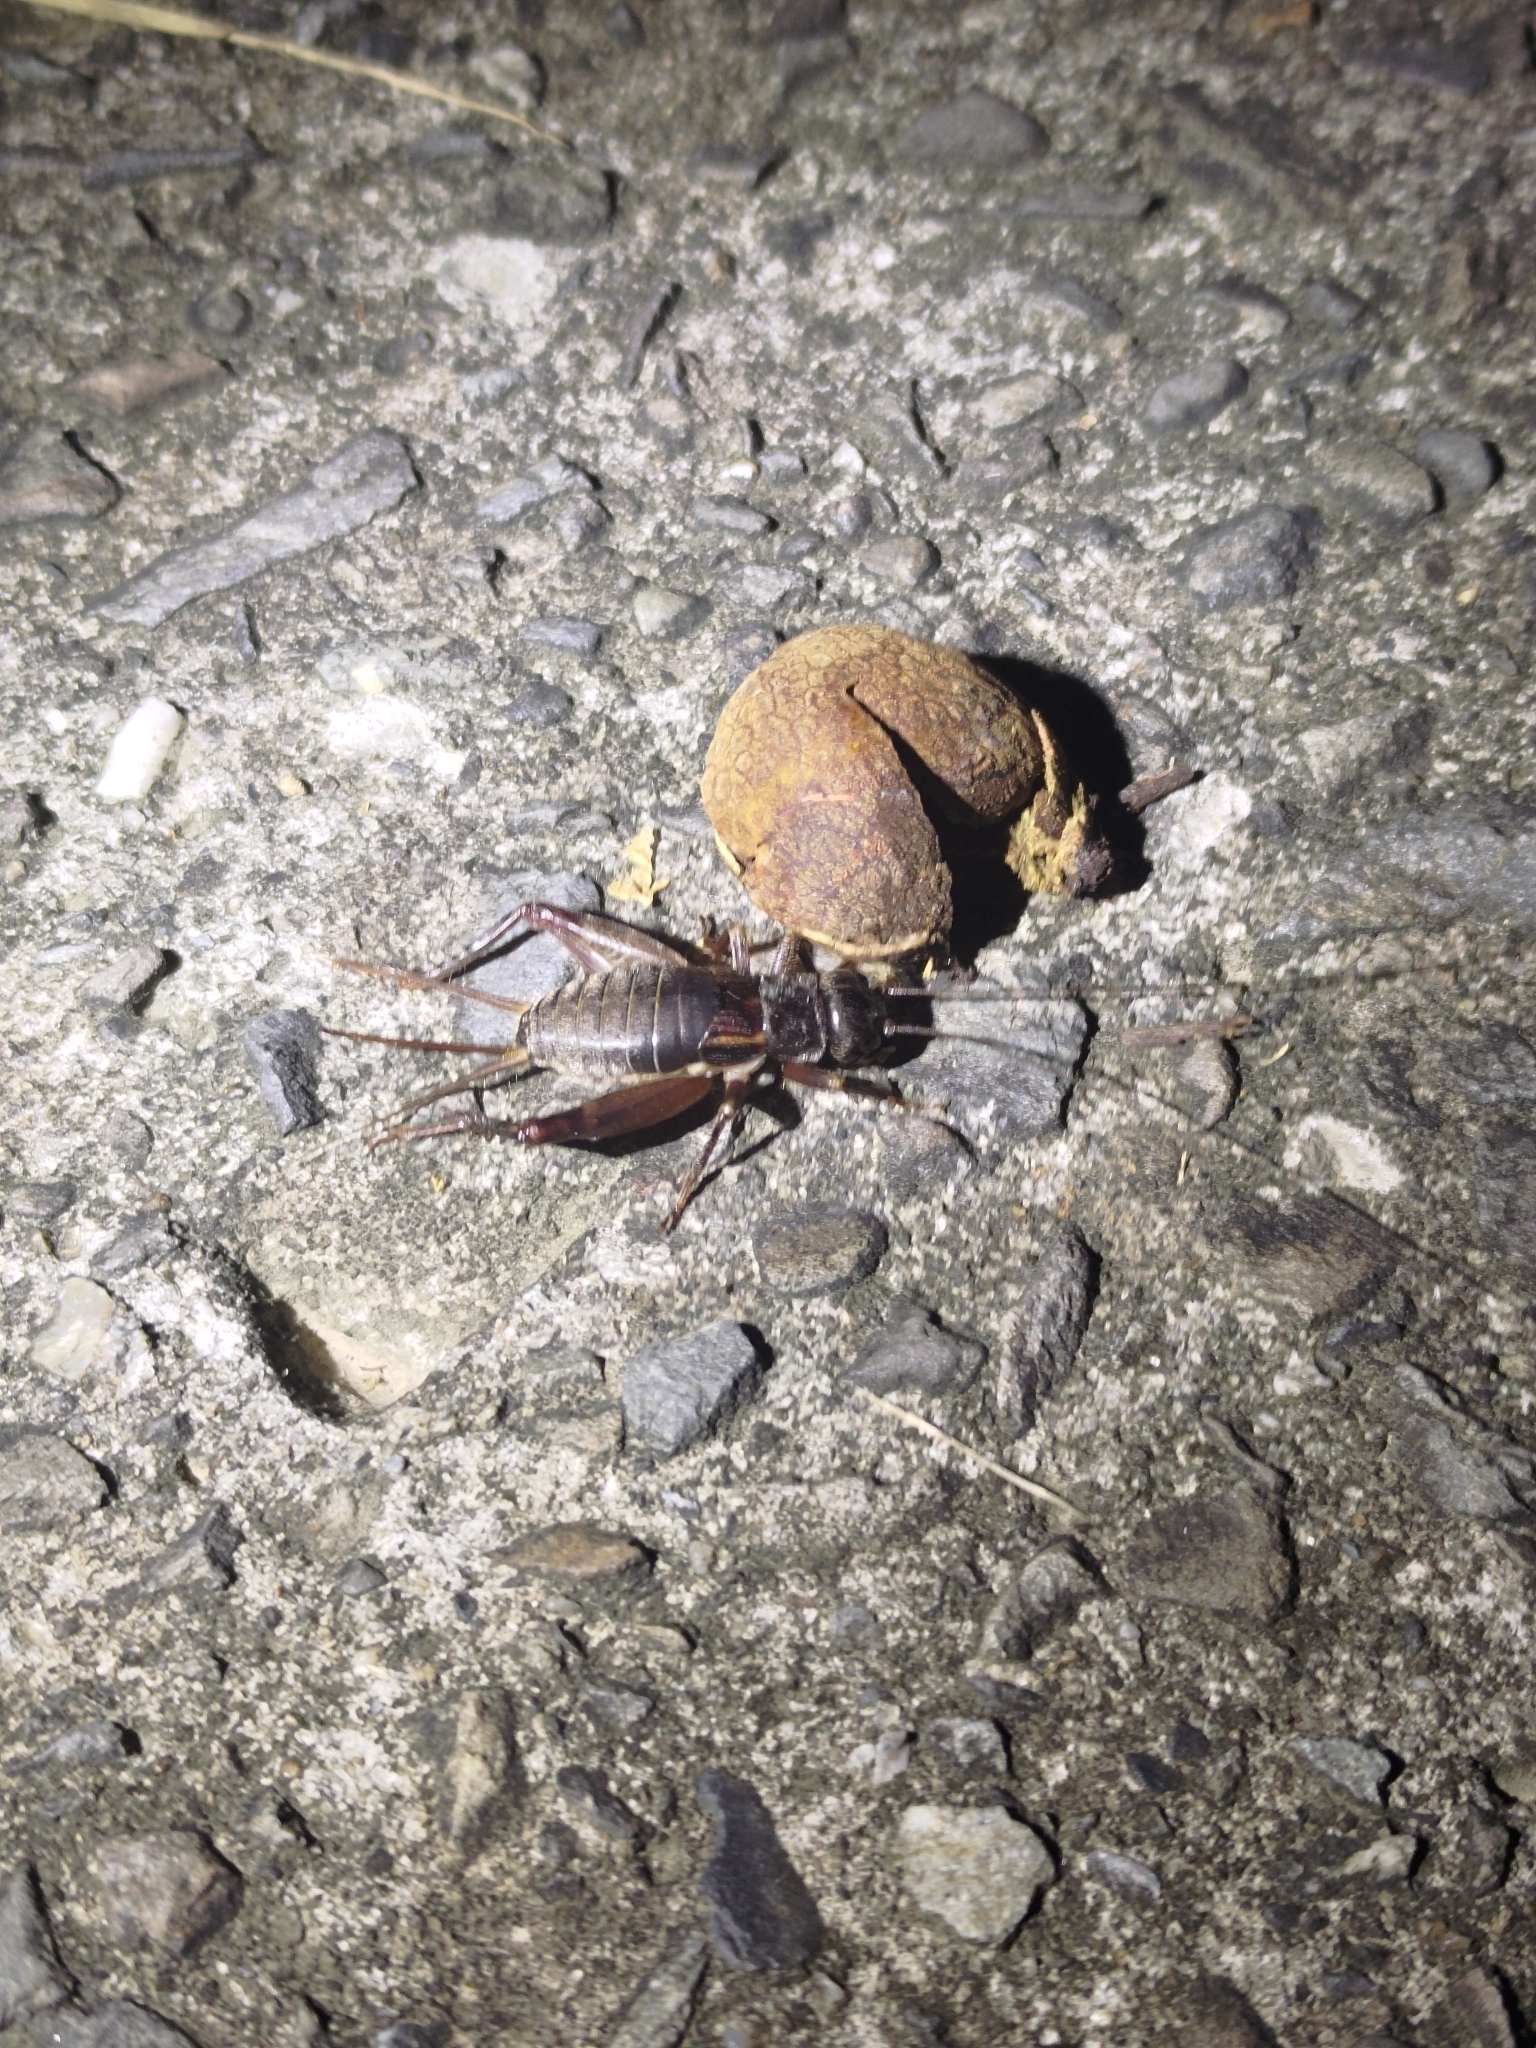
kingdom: Animalia
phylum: Arthropoda
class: Insecta
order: Orthoptera
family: Gryllidae
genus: Duolandrevus
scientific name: Duolandrevus coulonianus
